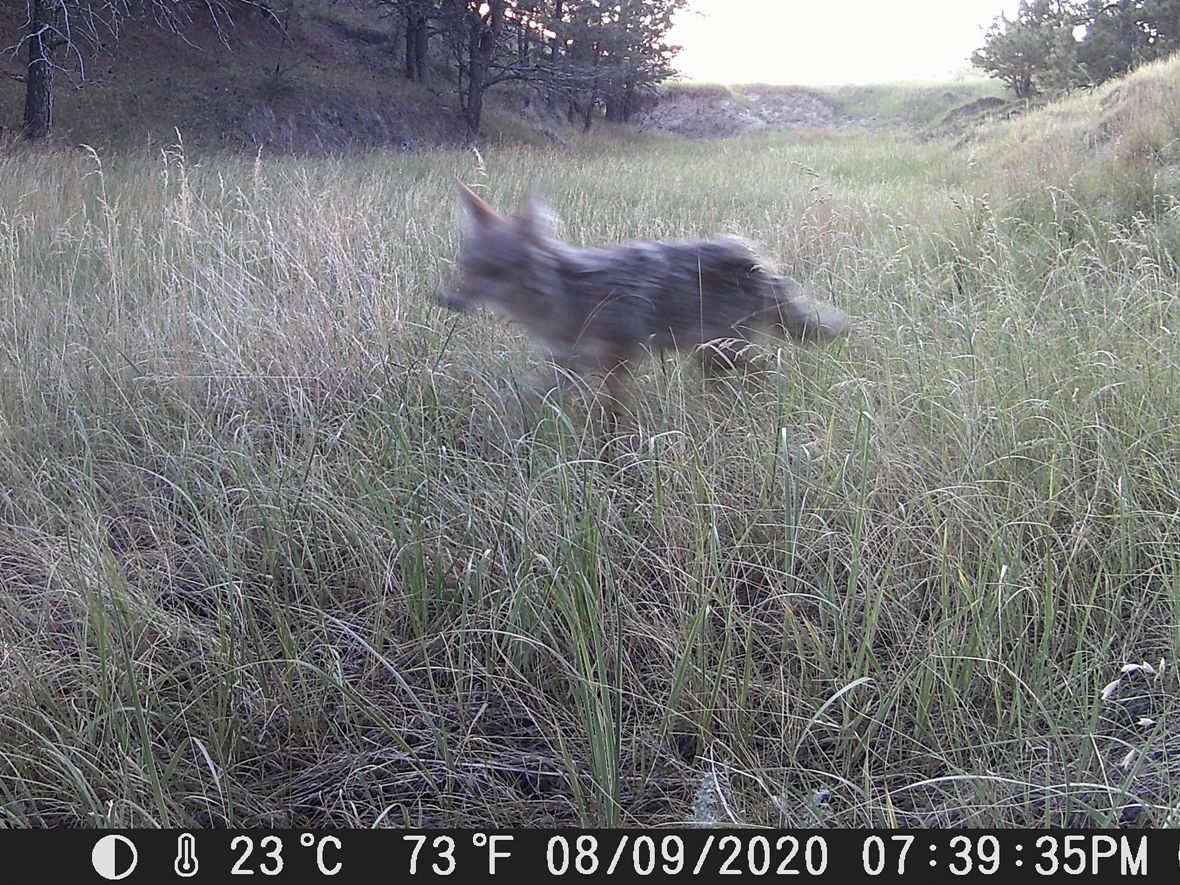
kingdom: Animalia
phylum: Chordata
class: Mammalia
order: Carnivora
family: Canidae
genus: Canis
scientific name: Canis latrans
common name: Coyote
